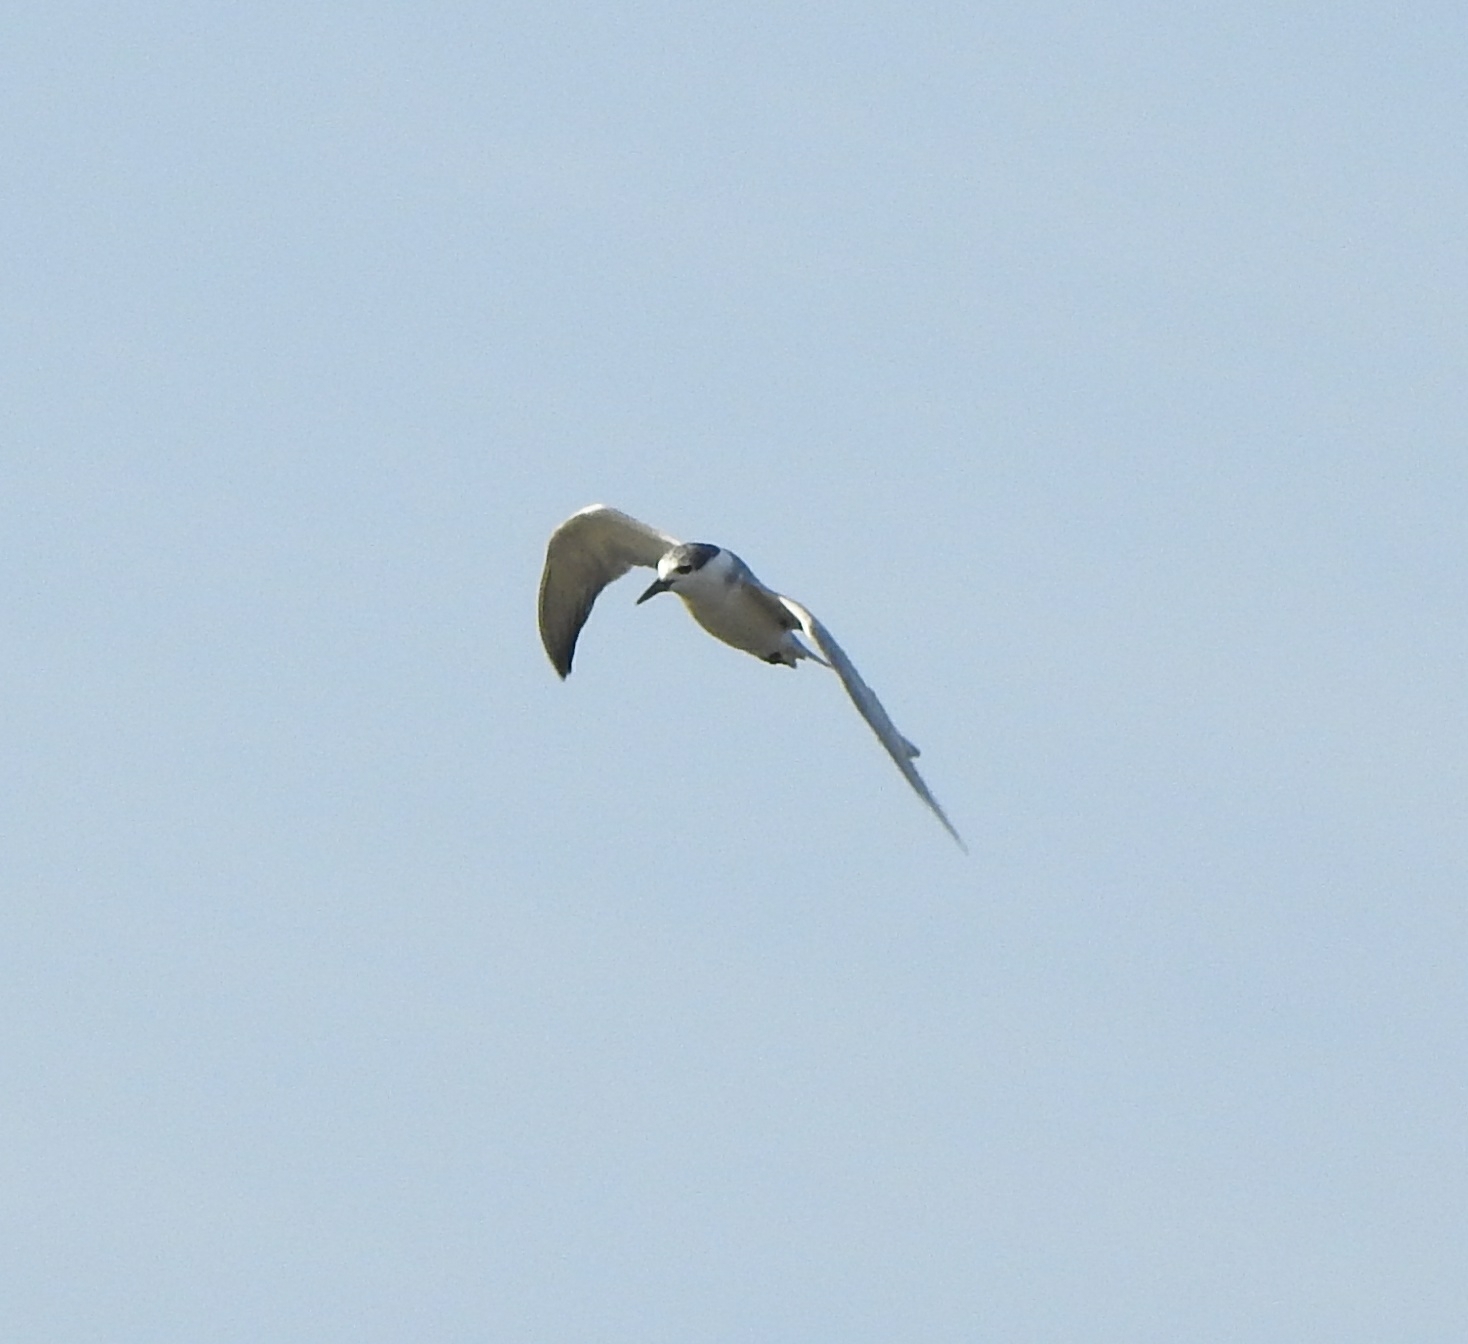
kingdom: Animalia
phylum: Chordata
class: Aves
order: Charadriiformes
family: Laridae
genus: Chlidonias
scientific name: Chlidonias hybrida
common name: Whiskered tern
